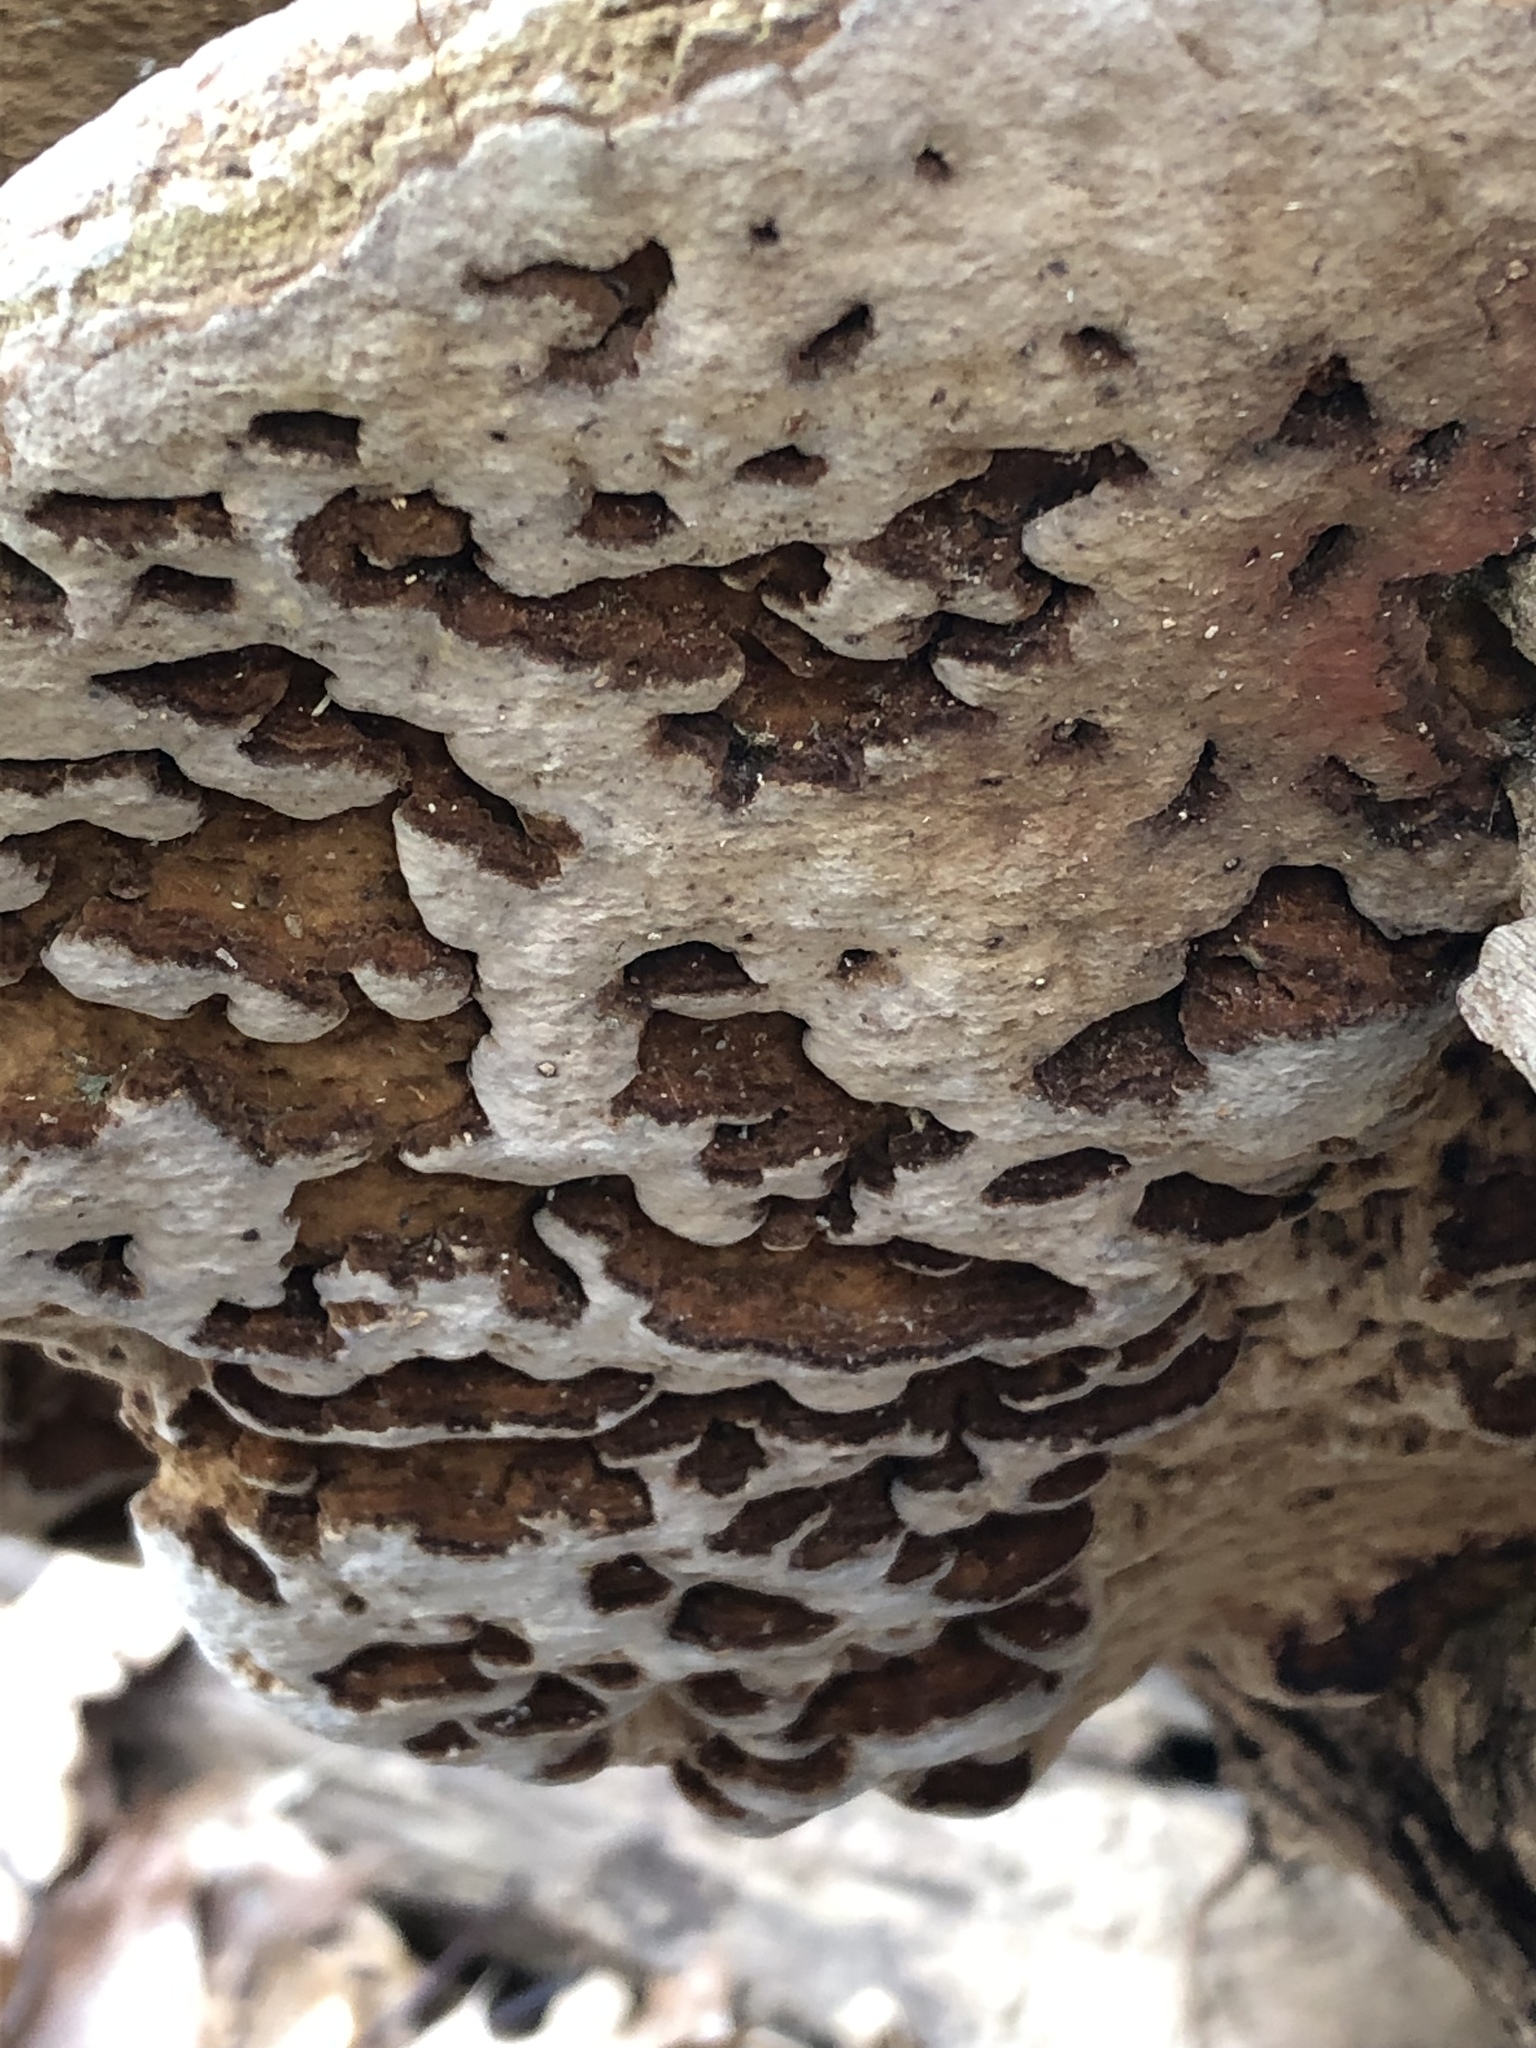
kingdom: Fungi
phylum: Basidiomycota
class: Agaricomycetes
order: Hymenochaetales
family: Hymenochaetaceae
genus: Phellinus
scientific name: Phellinus robiniae
